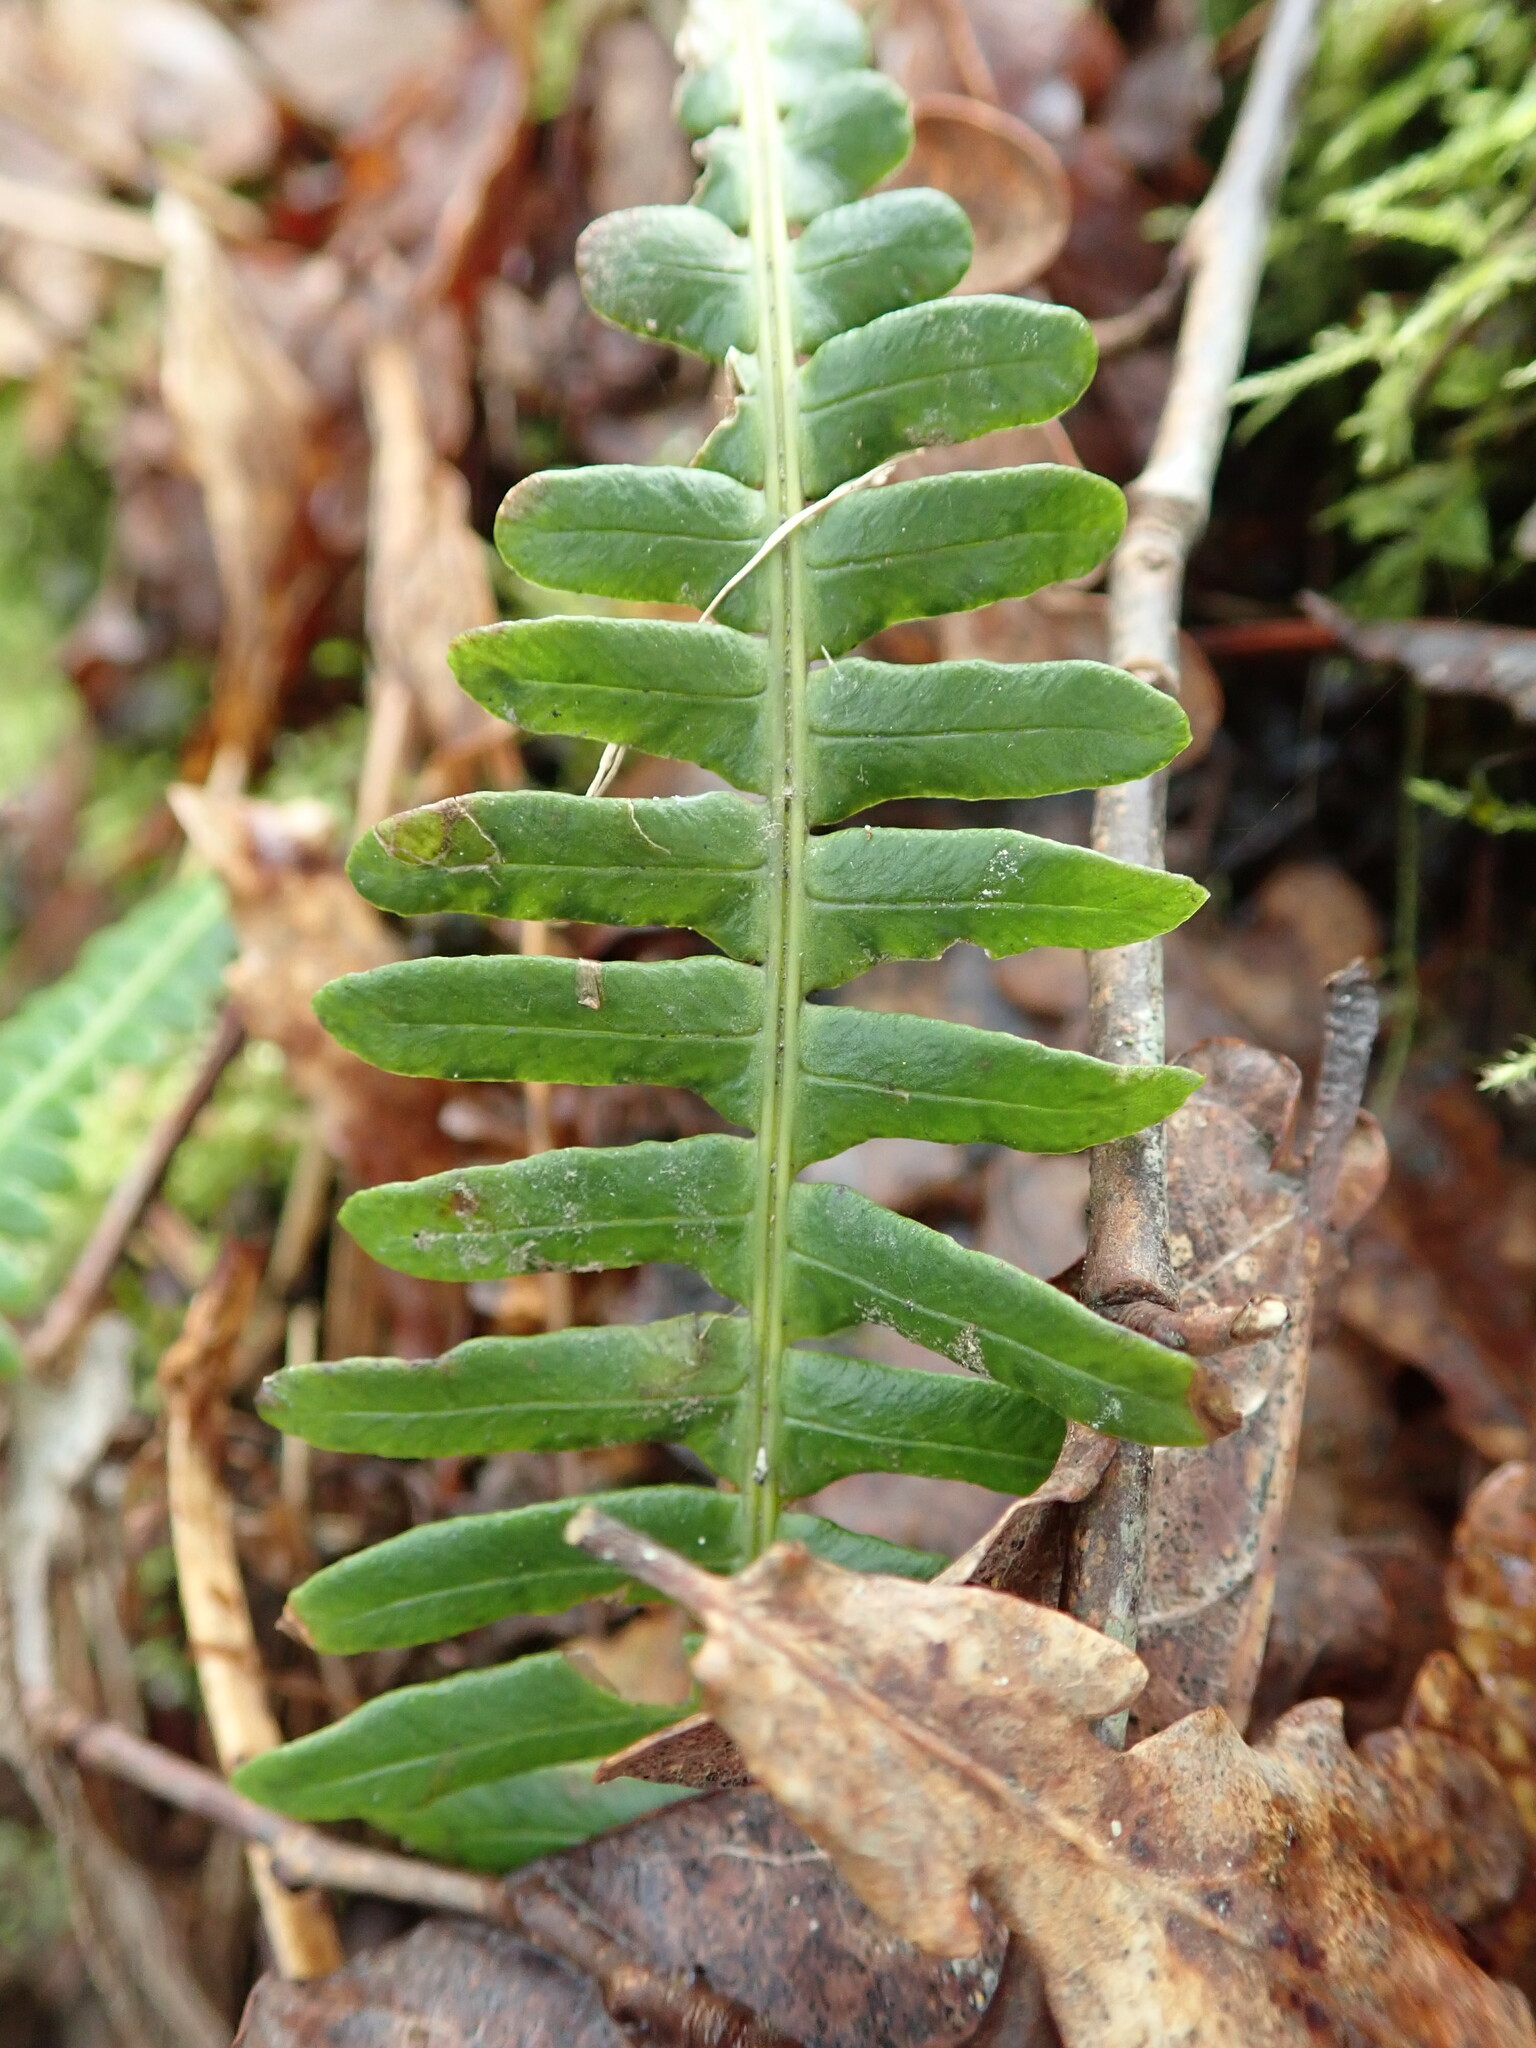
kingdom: Plantae
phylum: Tracheophyta
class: Polypodiopsida
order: Polypodiales
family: Blechnaceae
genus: Struthiopteris
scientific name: Struthiopteris spicant
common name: Deer fern
